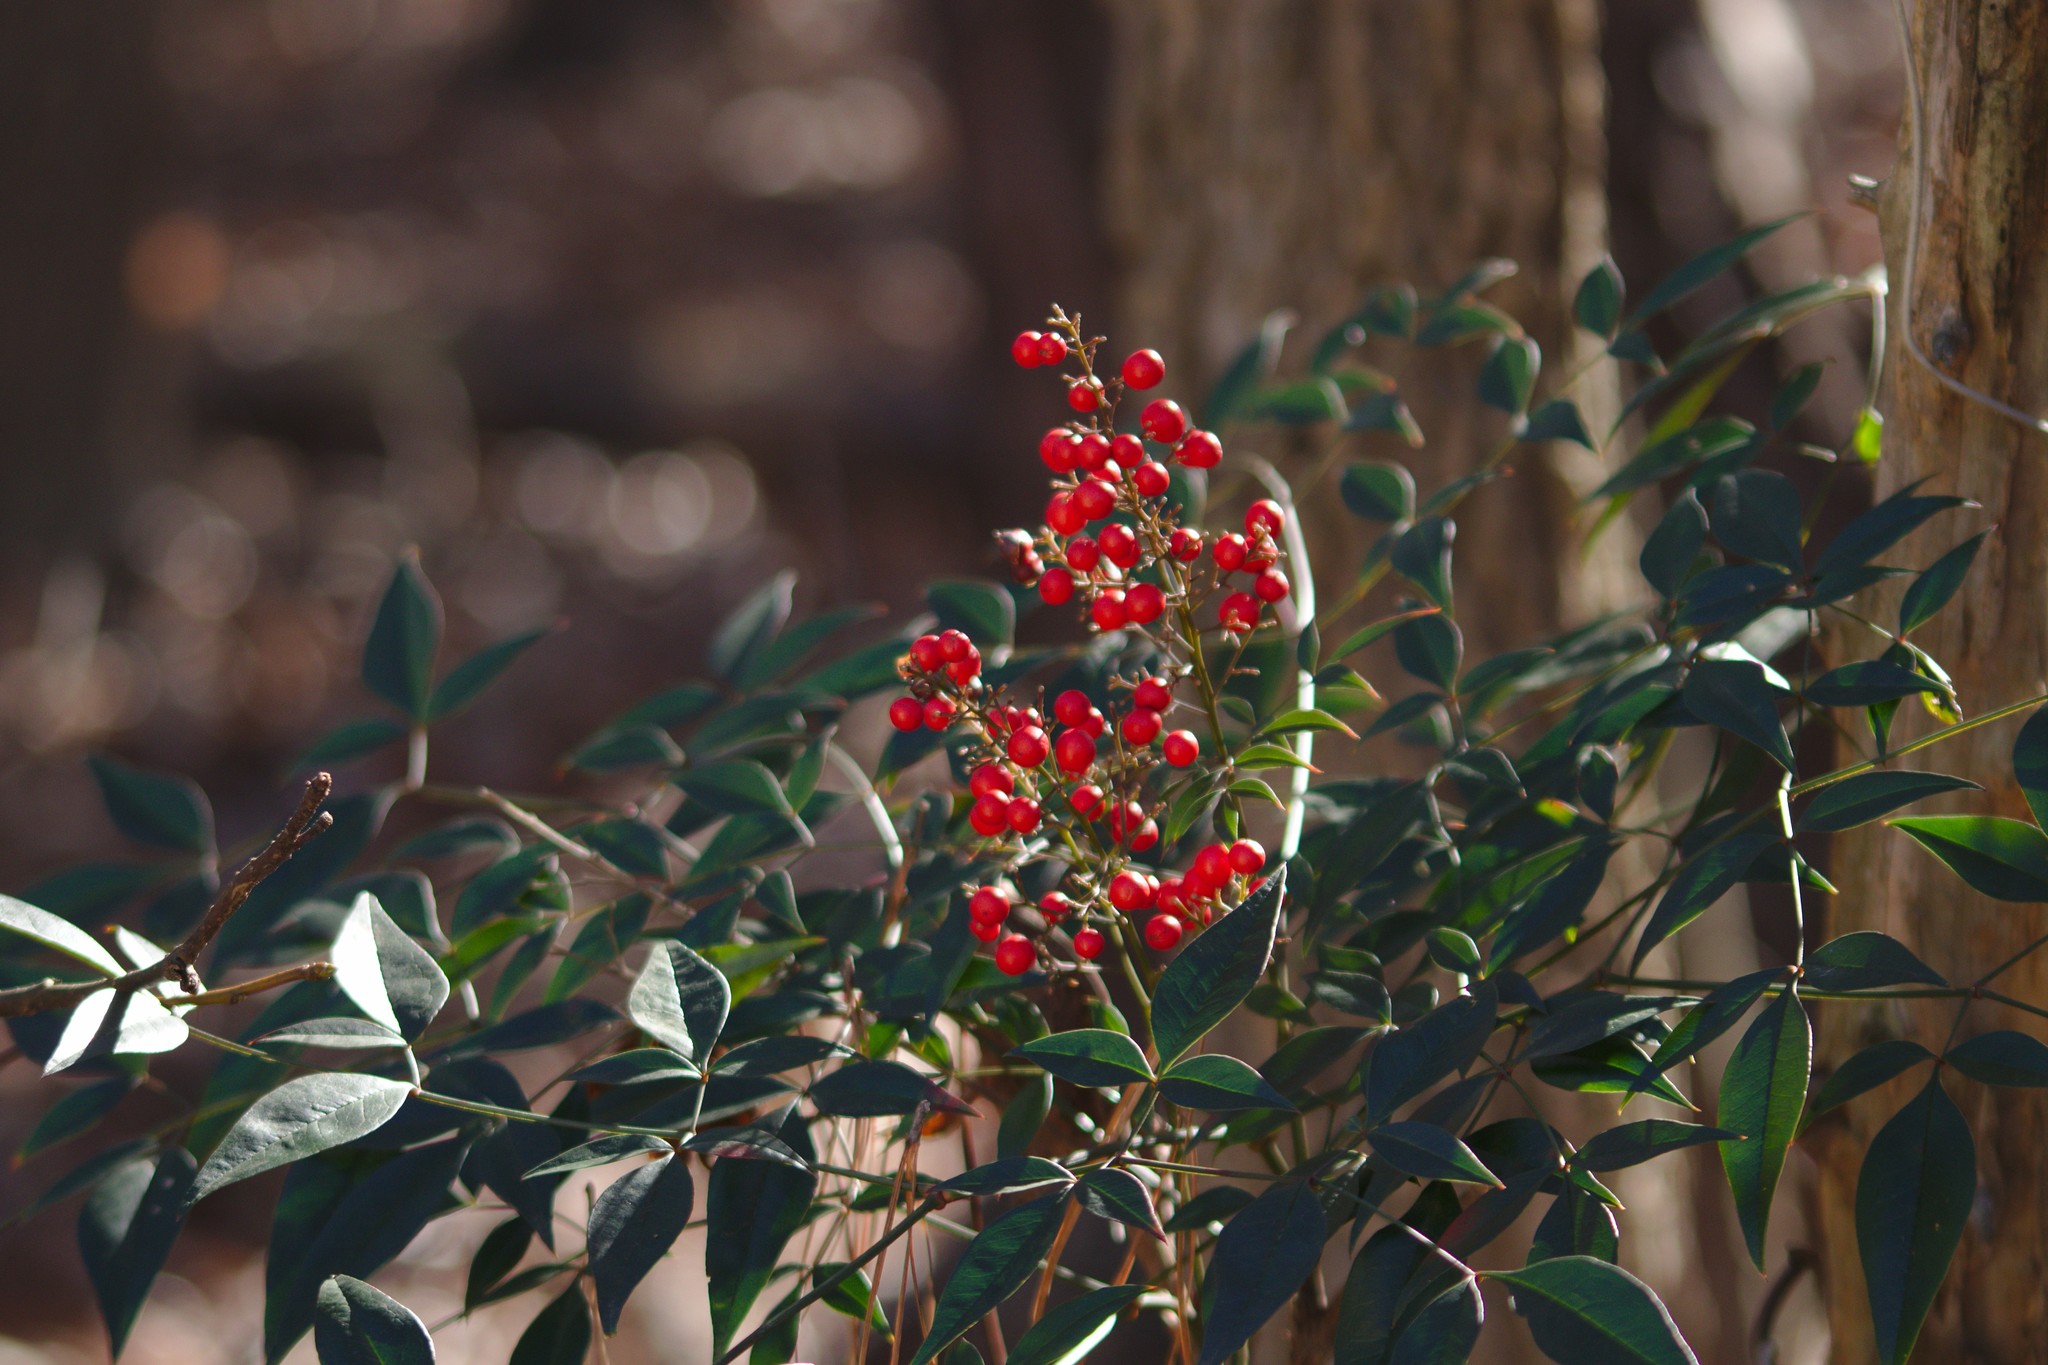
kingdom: Plantae
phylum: Tracheophyta
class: Magnoliopsida
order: Ranunculales
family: Berberidaceae
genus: Nandina
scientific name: Nandina domestica
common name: Sacred bamboo
